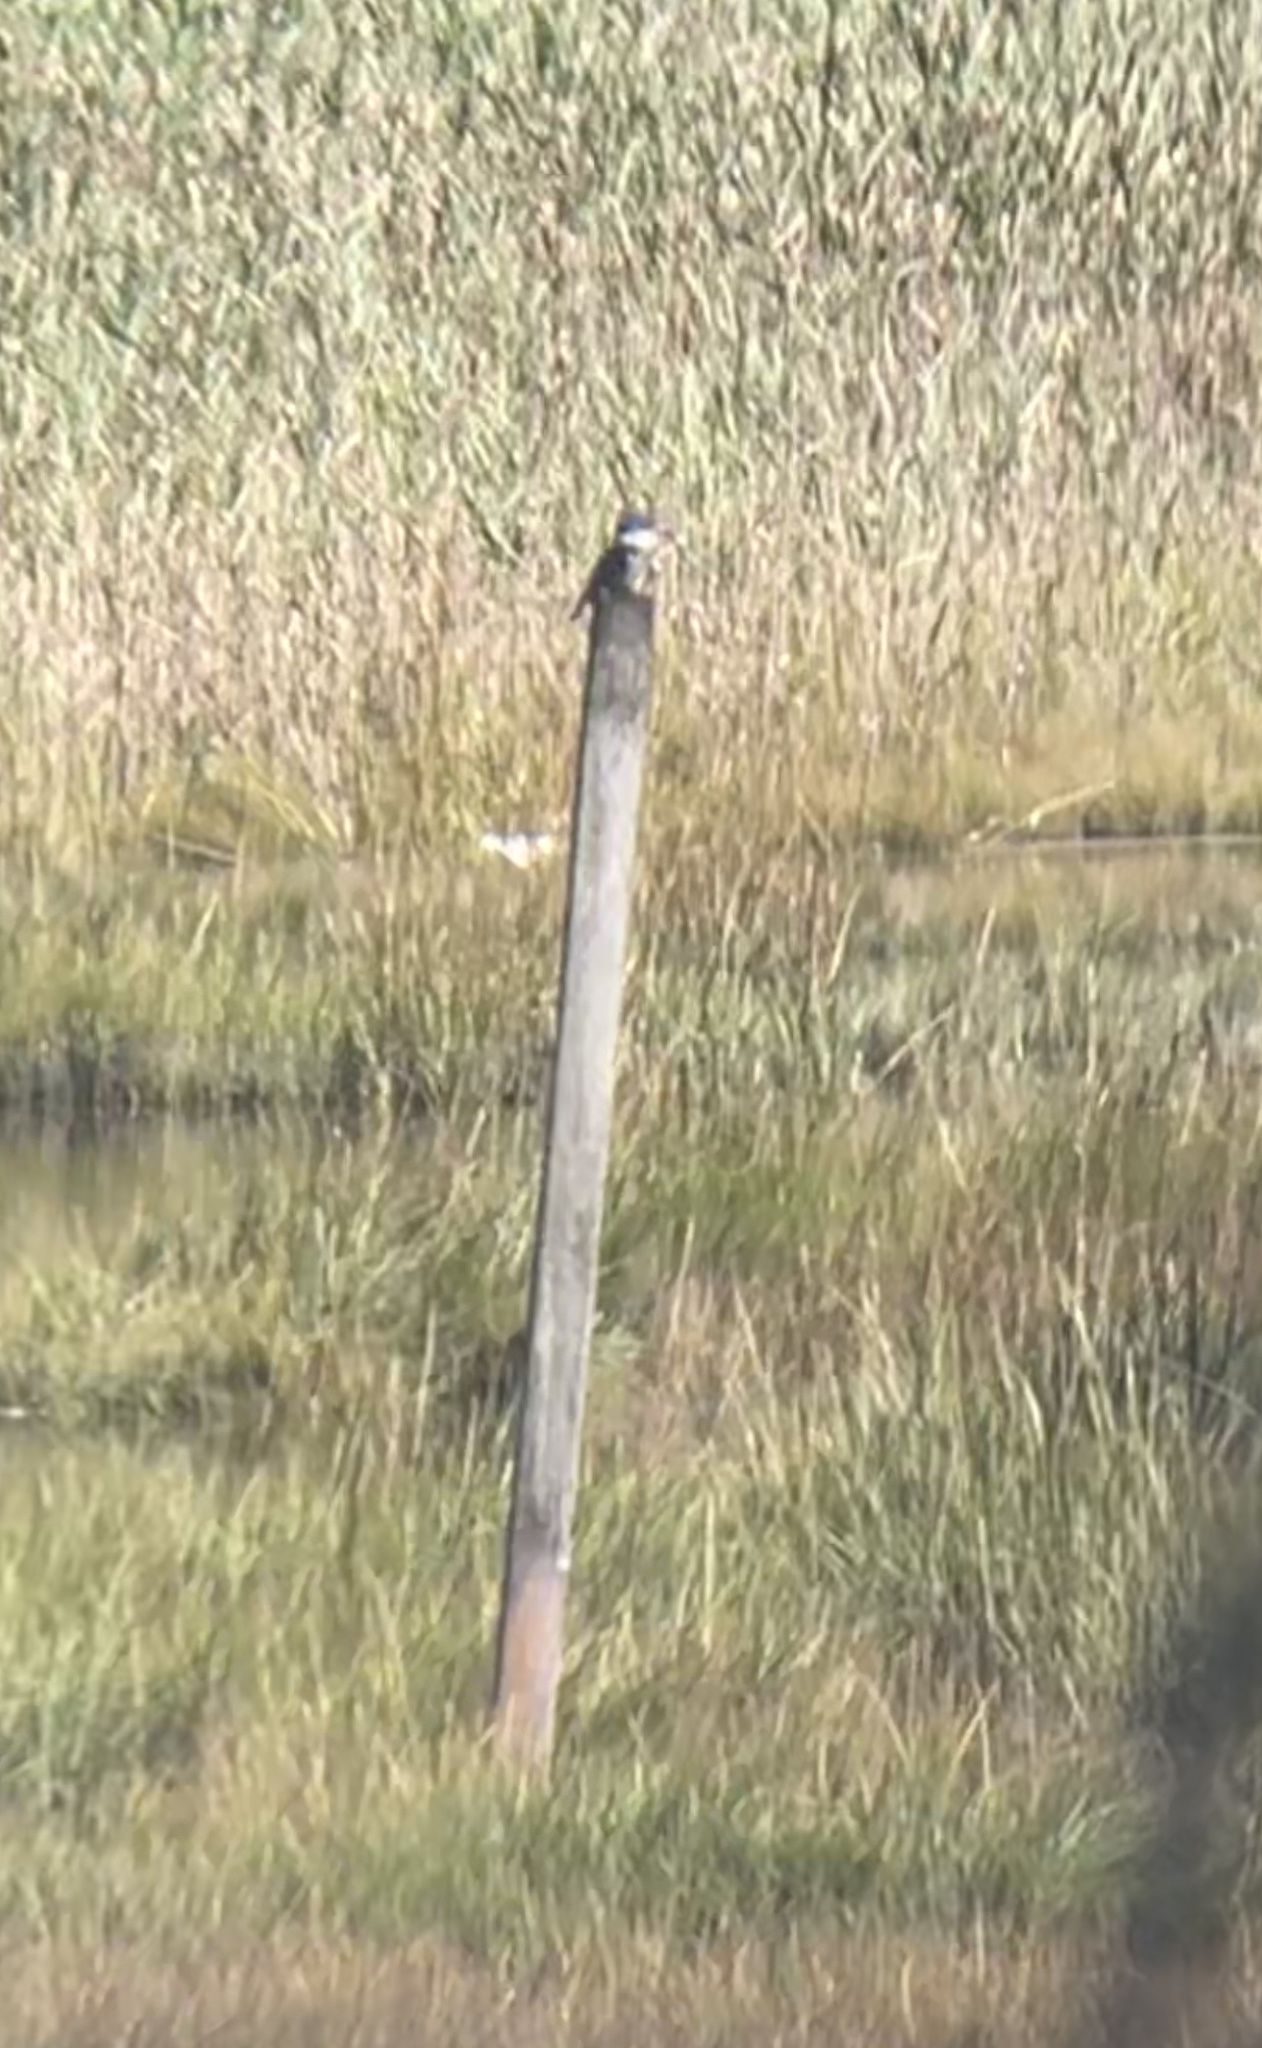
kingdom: Animalia
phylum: Chordata
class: Aves
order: Coraciiformes
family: Alcedinidae
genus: Megaceryle
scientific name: Megaceryle alcyon
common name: Belted kingfisher
